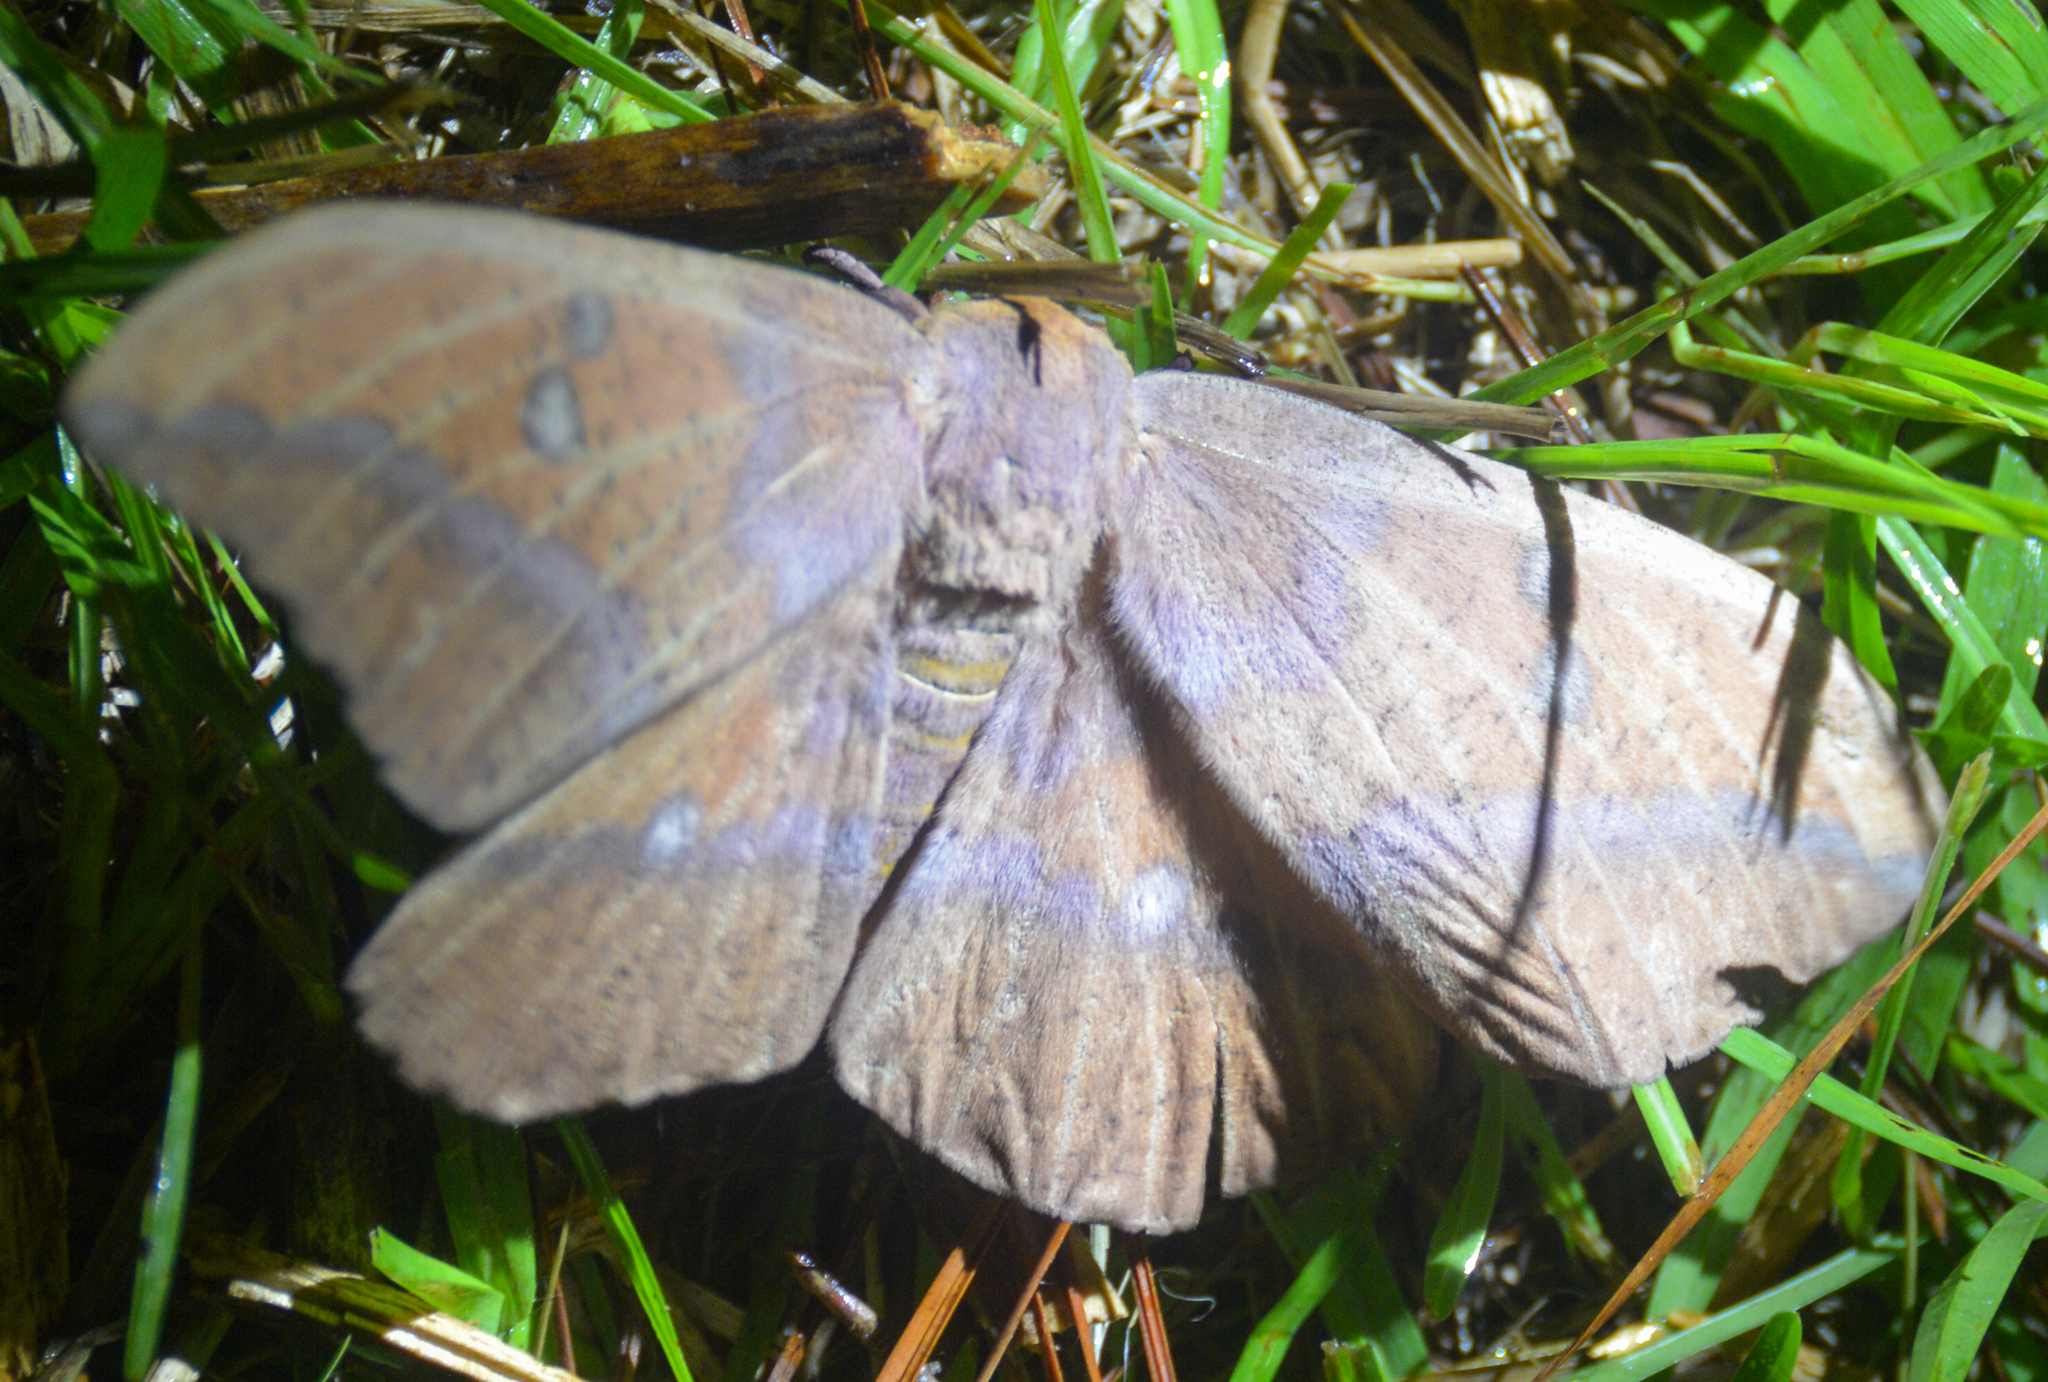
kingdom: Animalia
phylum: Arthropoda
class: Insecta
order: Lepidoptera
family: Saturniidae
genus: Eacles
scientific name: Eacles imperialis
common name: Imperial moth
